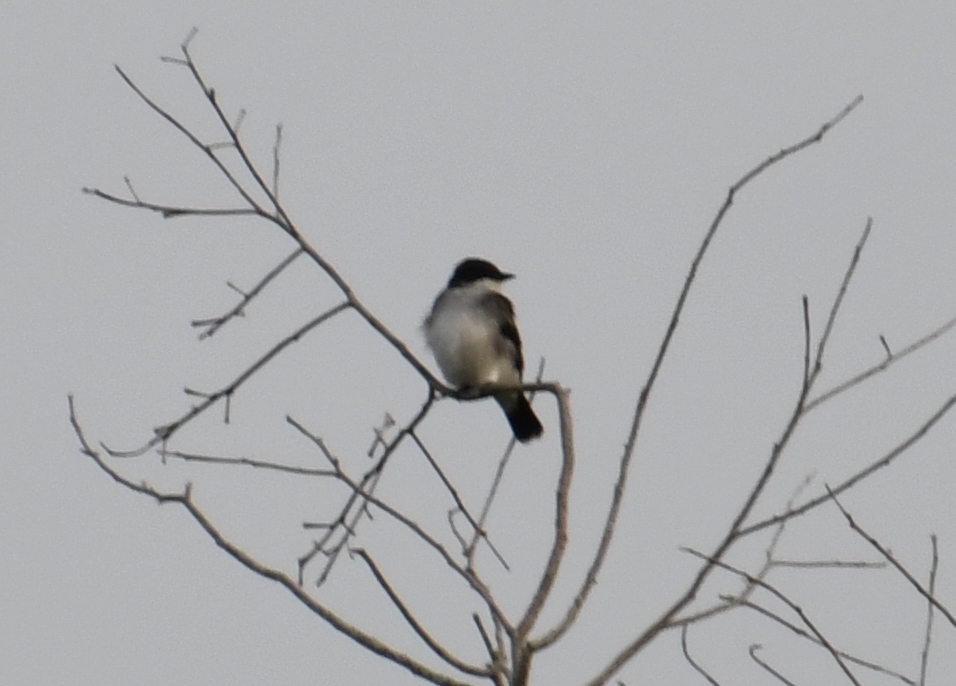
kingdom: Animalia
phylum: Chordata
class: Aves
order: Passeriformes
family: Tyrannidae
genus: Tyrannus
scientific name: Tyrannus tyrannus
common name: Eastern kingbird
